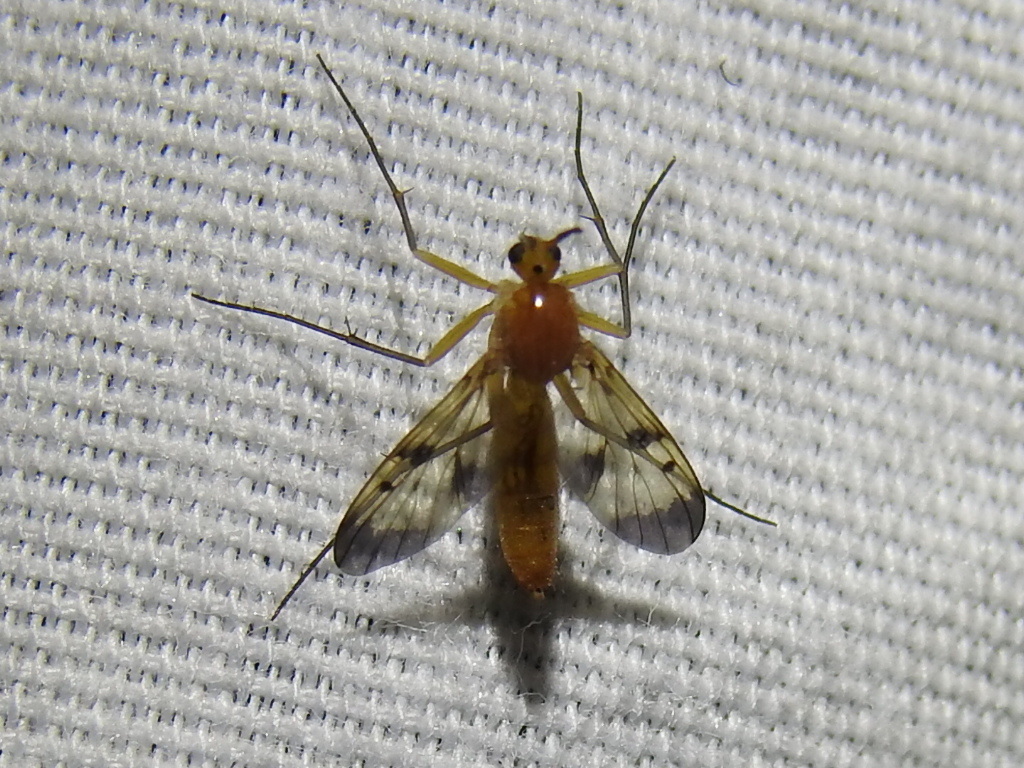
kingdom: Animalia
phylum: Arthropoda
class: Insecta
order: Diptera
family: Mycetophilidae
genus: Neoempheria
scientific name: Neoempheria illustris
